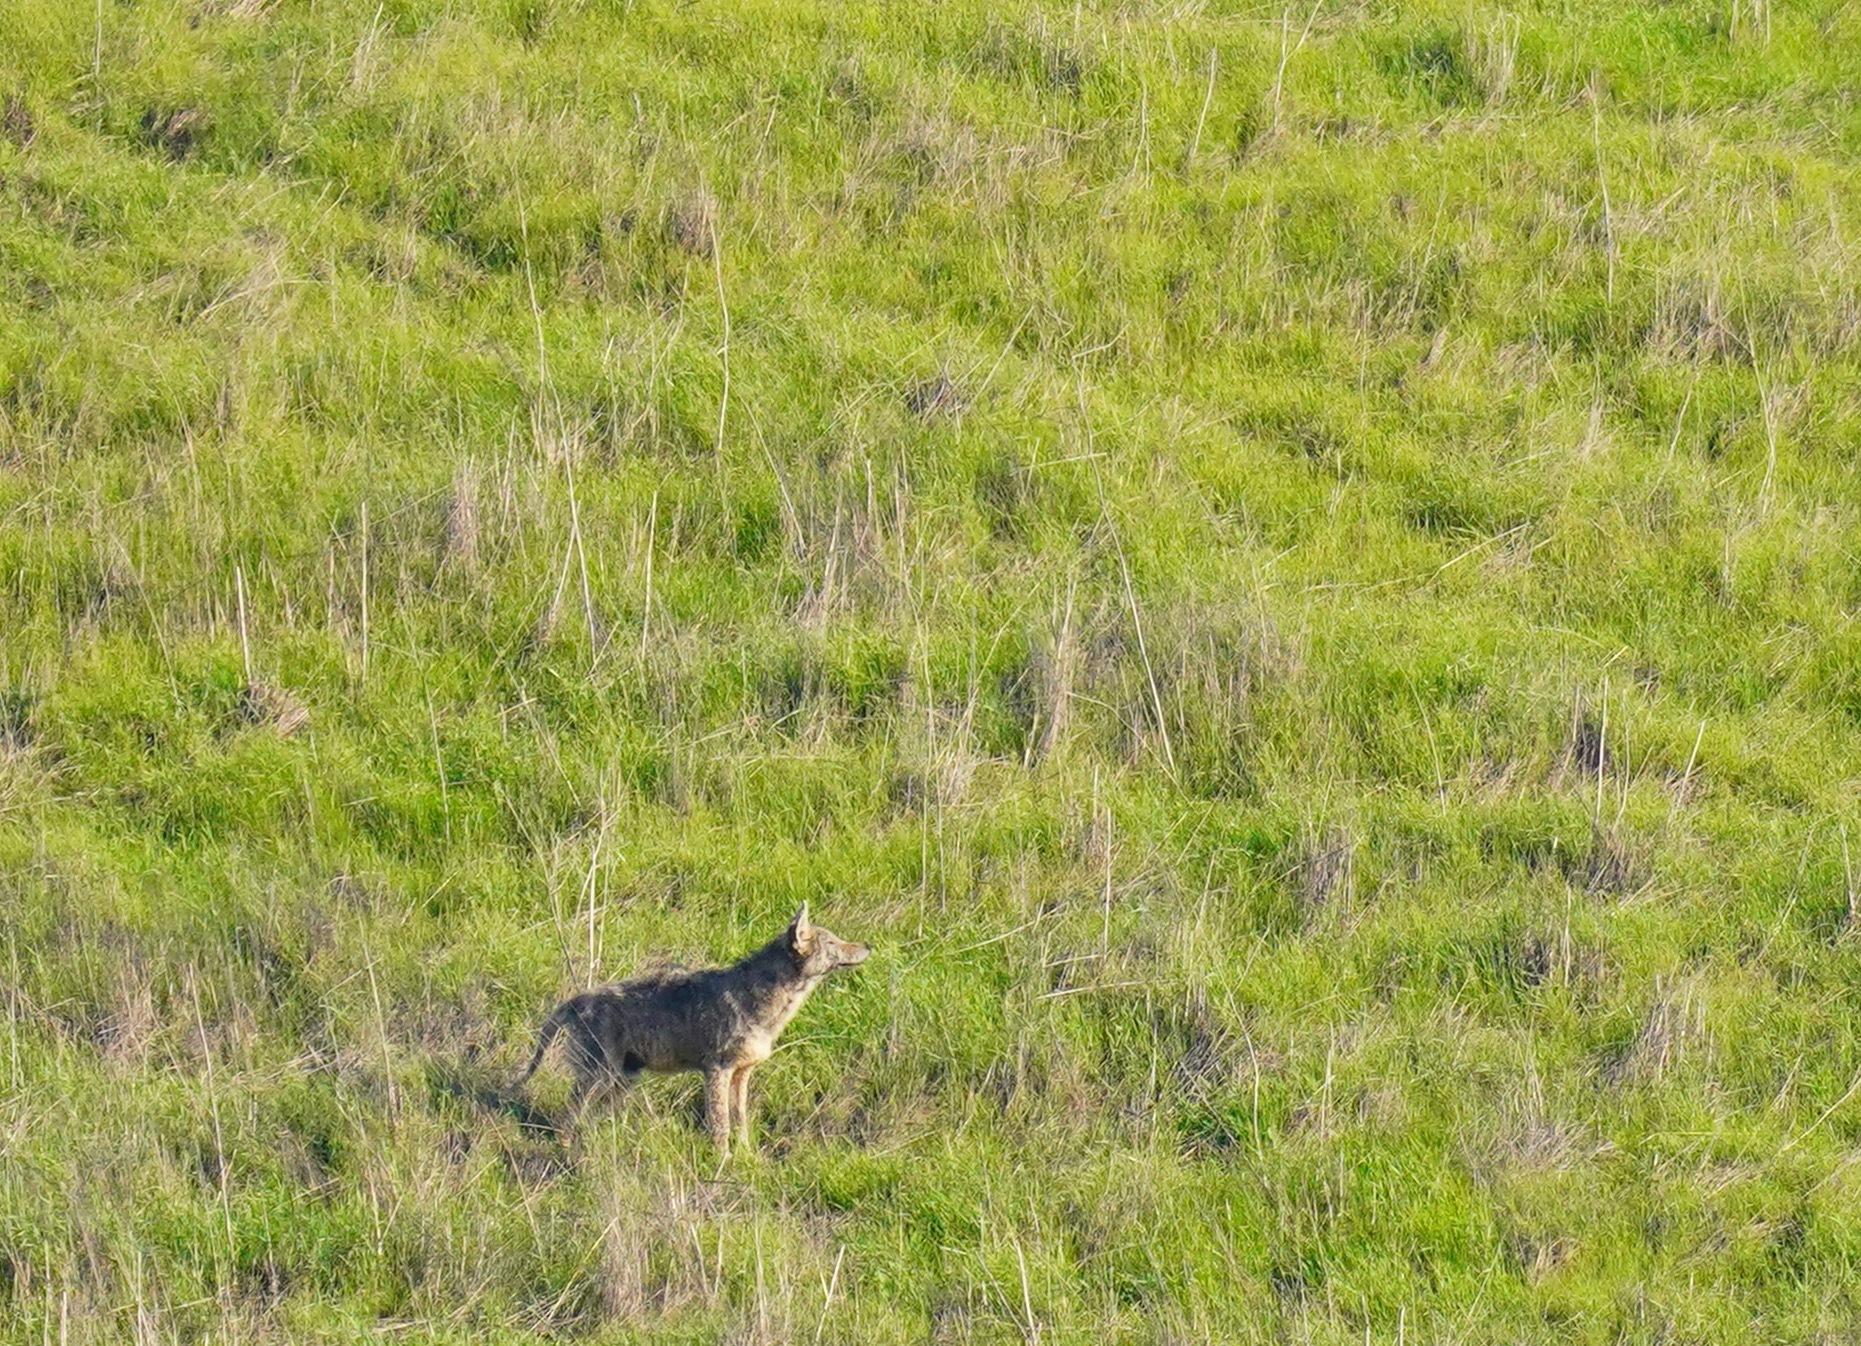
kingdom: Animalia
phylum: Chordata
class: Mammalia
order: Carnivora
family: Canidae
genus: Canis
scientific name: Canis latrans
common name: Coyote
